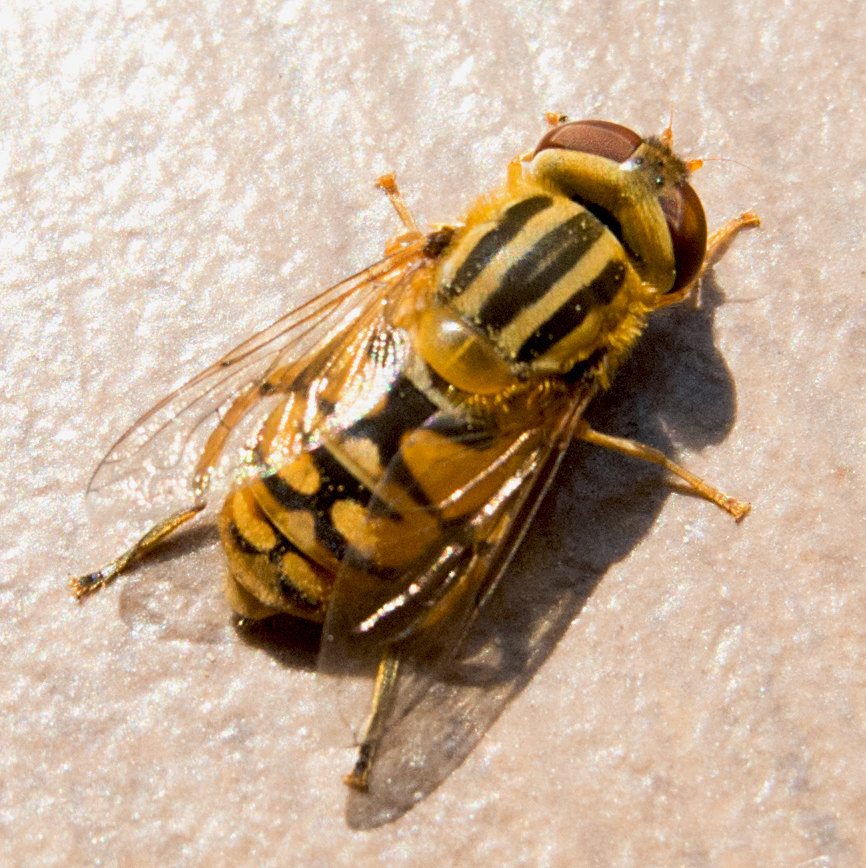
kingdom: Animalia
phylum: Arthropoda
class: Insecta
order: Diptera
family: Syrphidae
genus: Parhelophilus
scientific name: Parhelophilus
